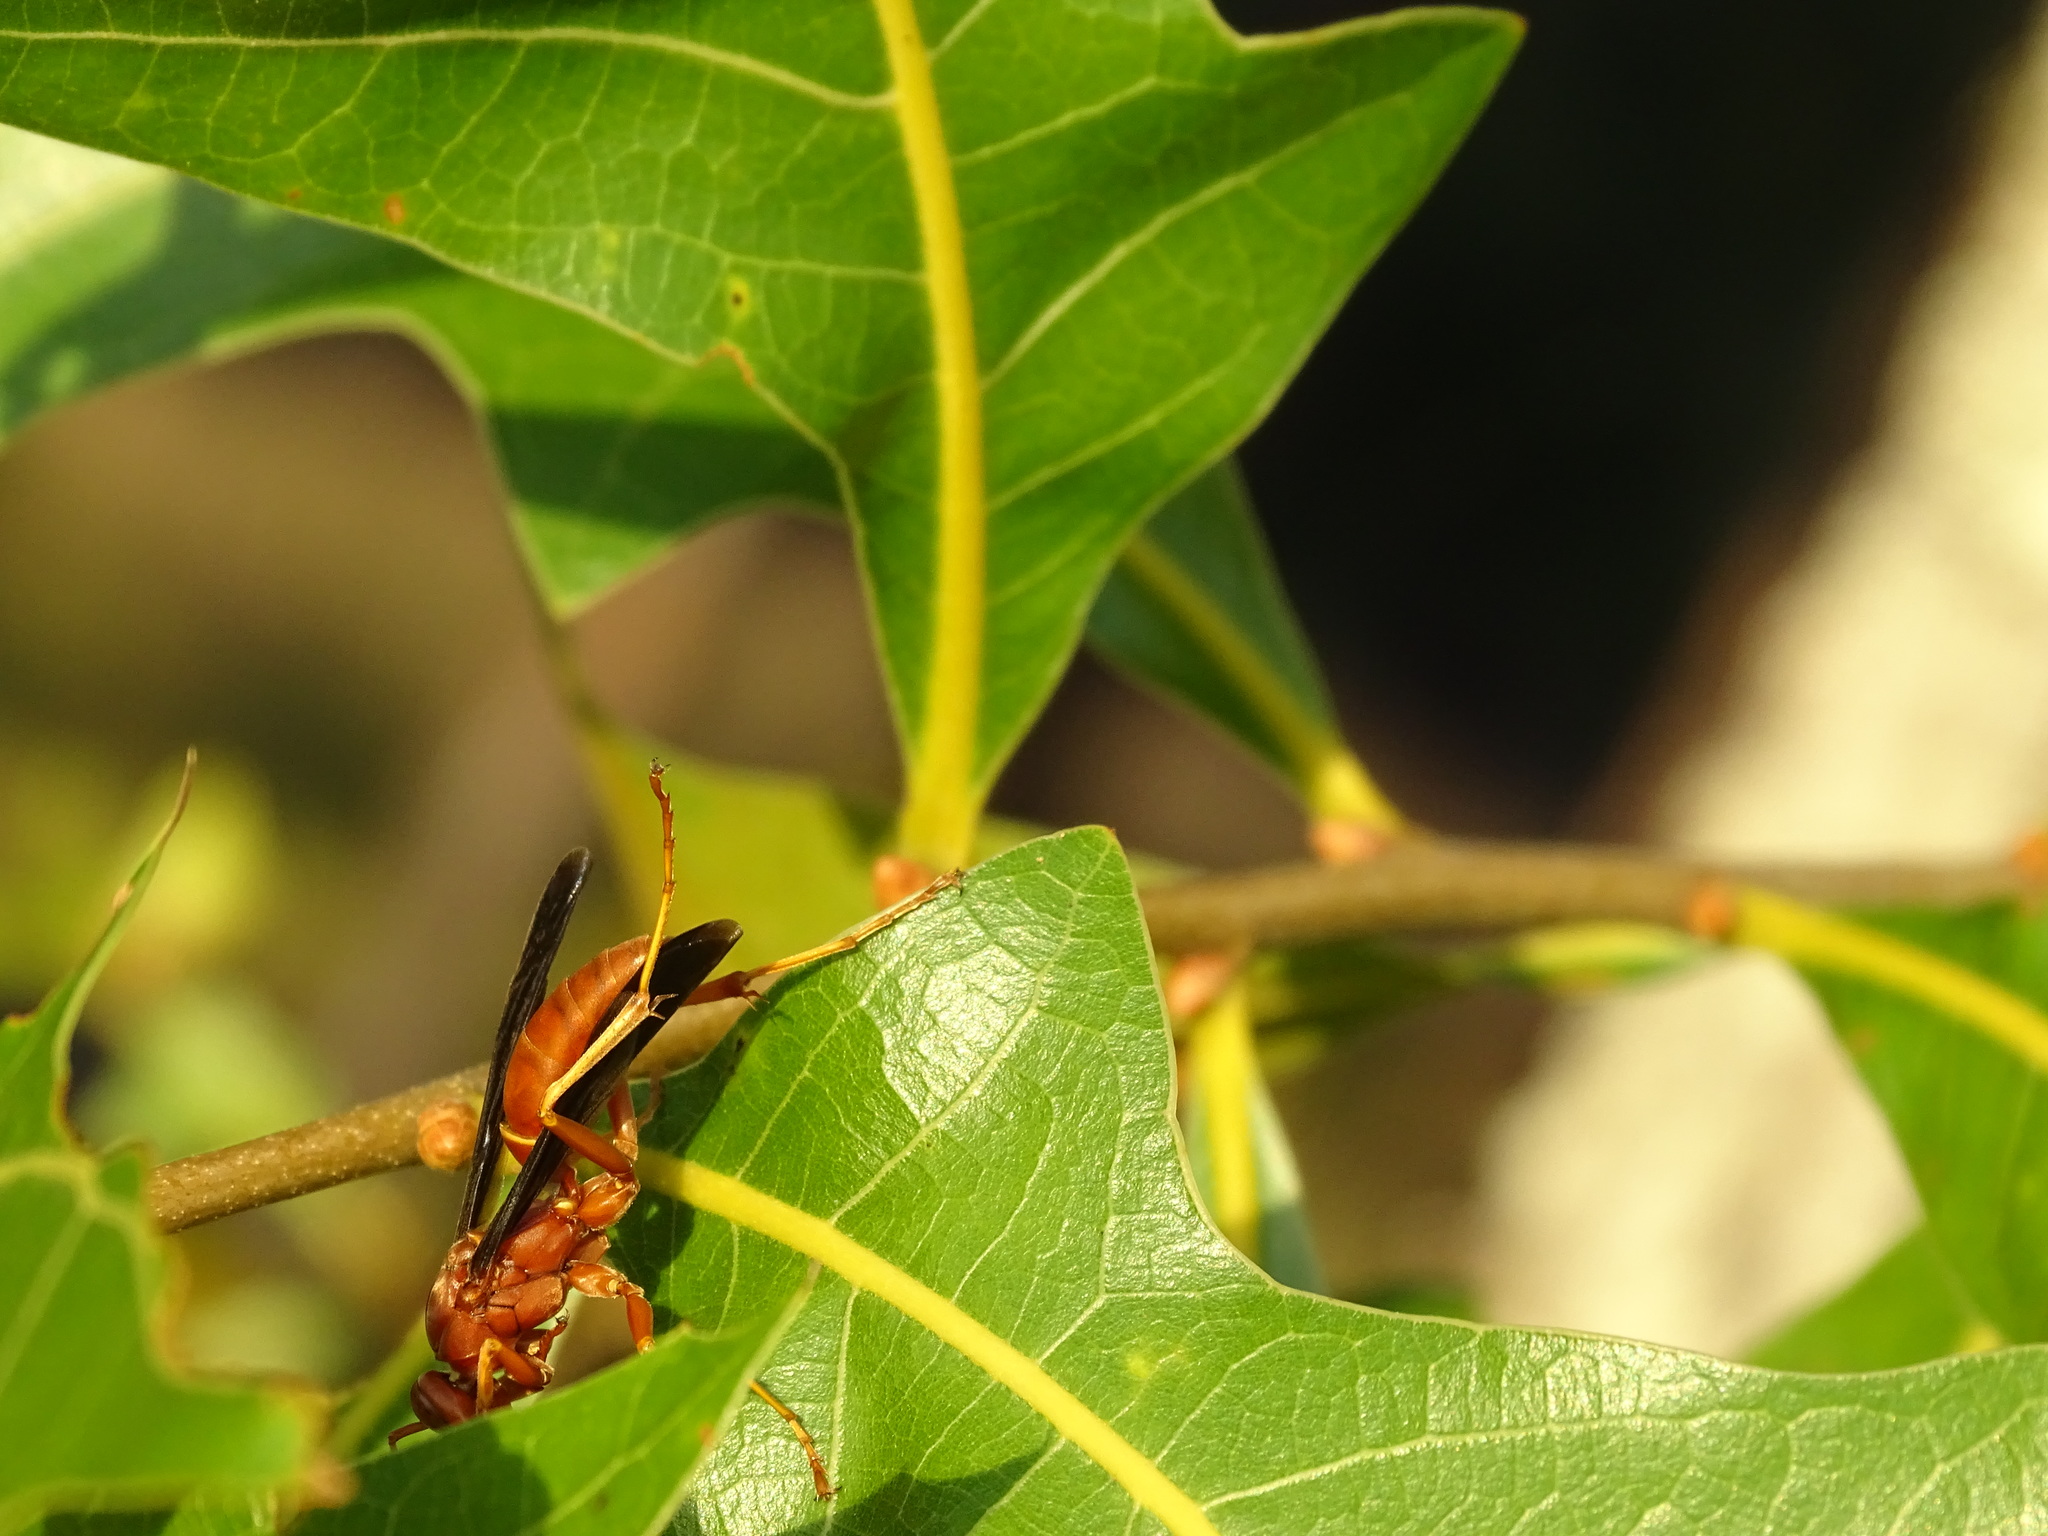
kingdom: Animalia
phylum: Arthropoda
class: Insecta
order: Hymenoptera
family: Vespidae
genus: Fuscopolistes
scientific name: Fuscopolistes
